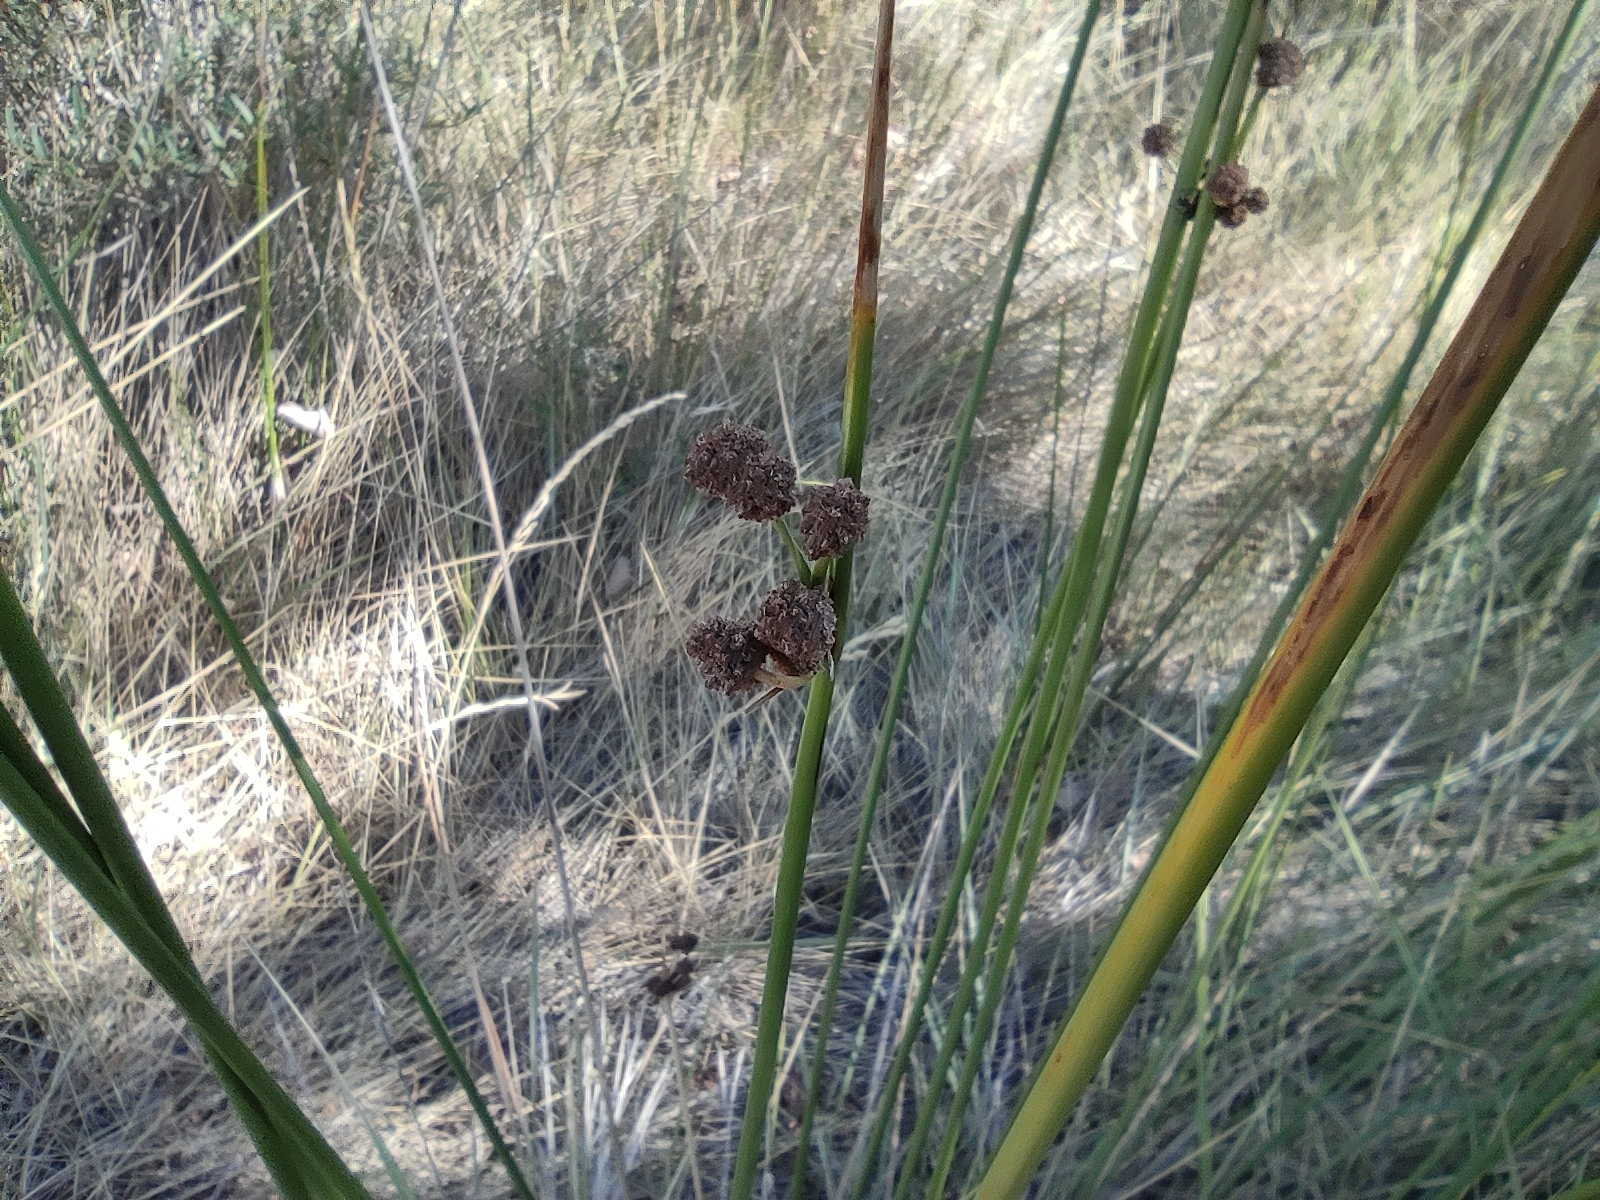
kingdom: Plantae
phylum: Tracheophyta
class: Liliopsida
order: Poales
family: Cyperaceae
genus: Scirpoides
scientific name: Scirpoides holoschoenus
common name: Round-headed club-rush
